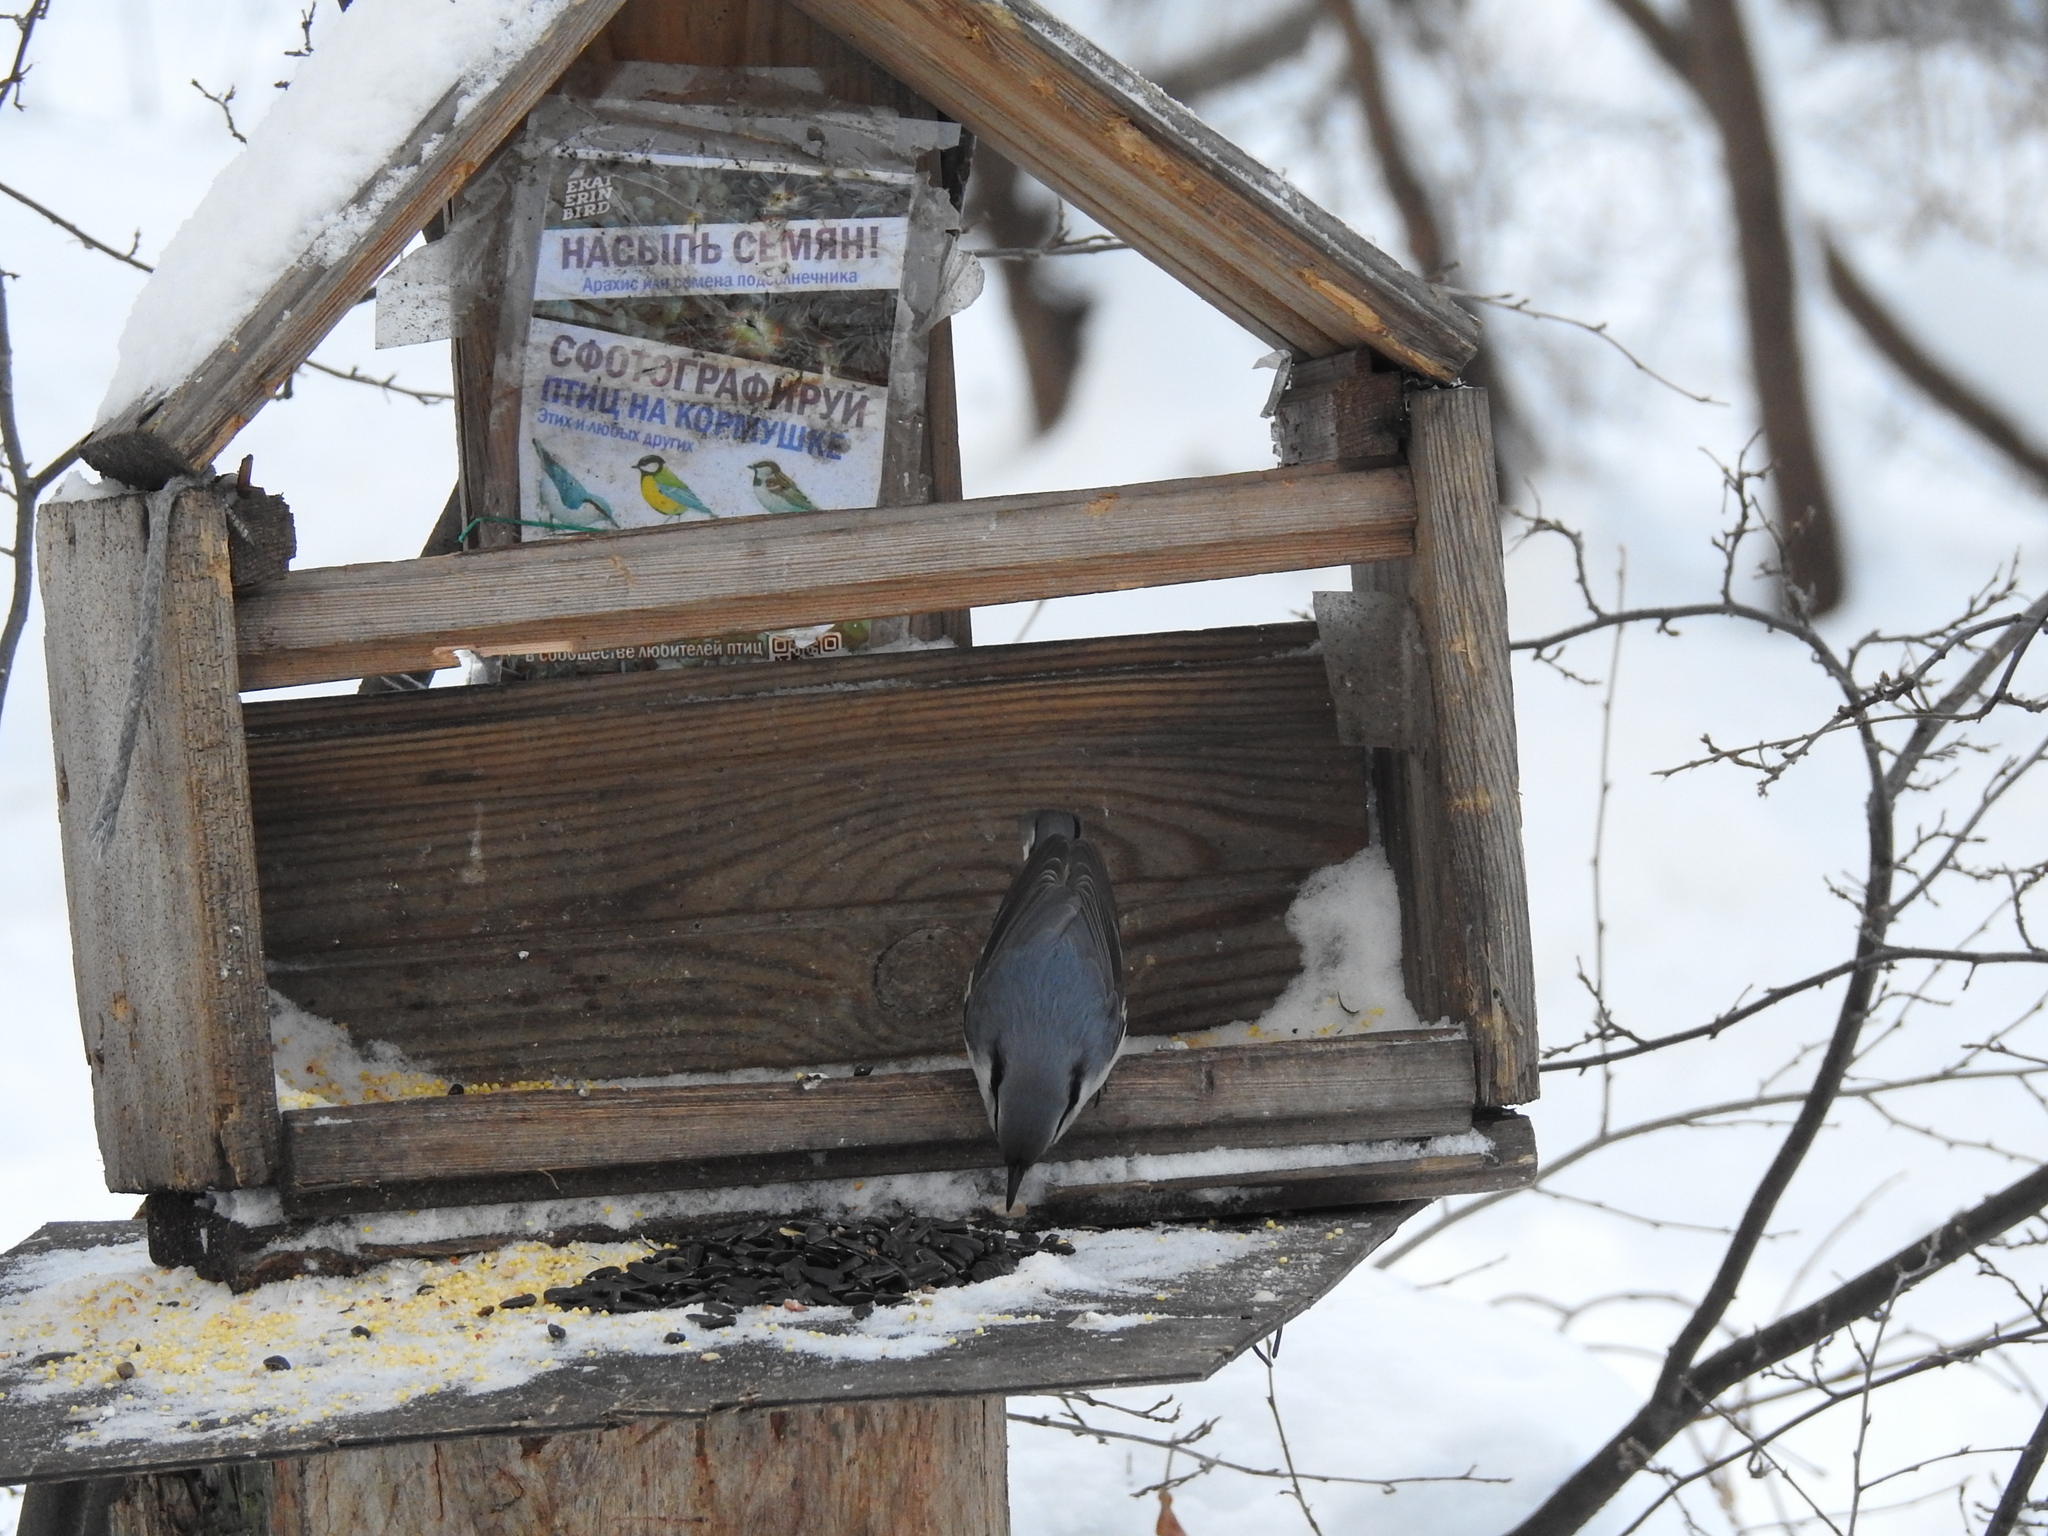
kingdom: Animalia
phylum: Chordata
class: Aves
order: Passeriformes
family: Sittidae
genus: Sitta
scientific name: Sitta europaea
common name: Eurasian nuthatch
